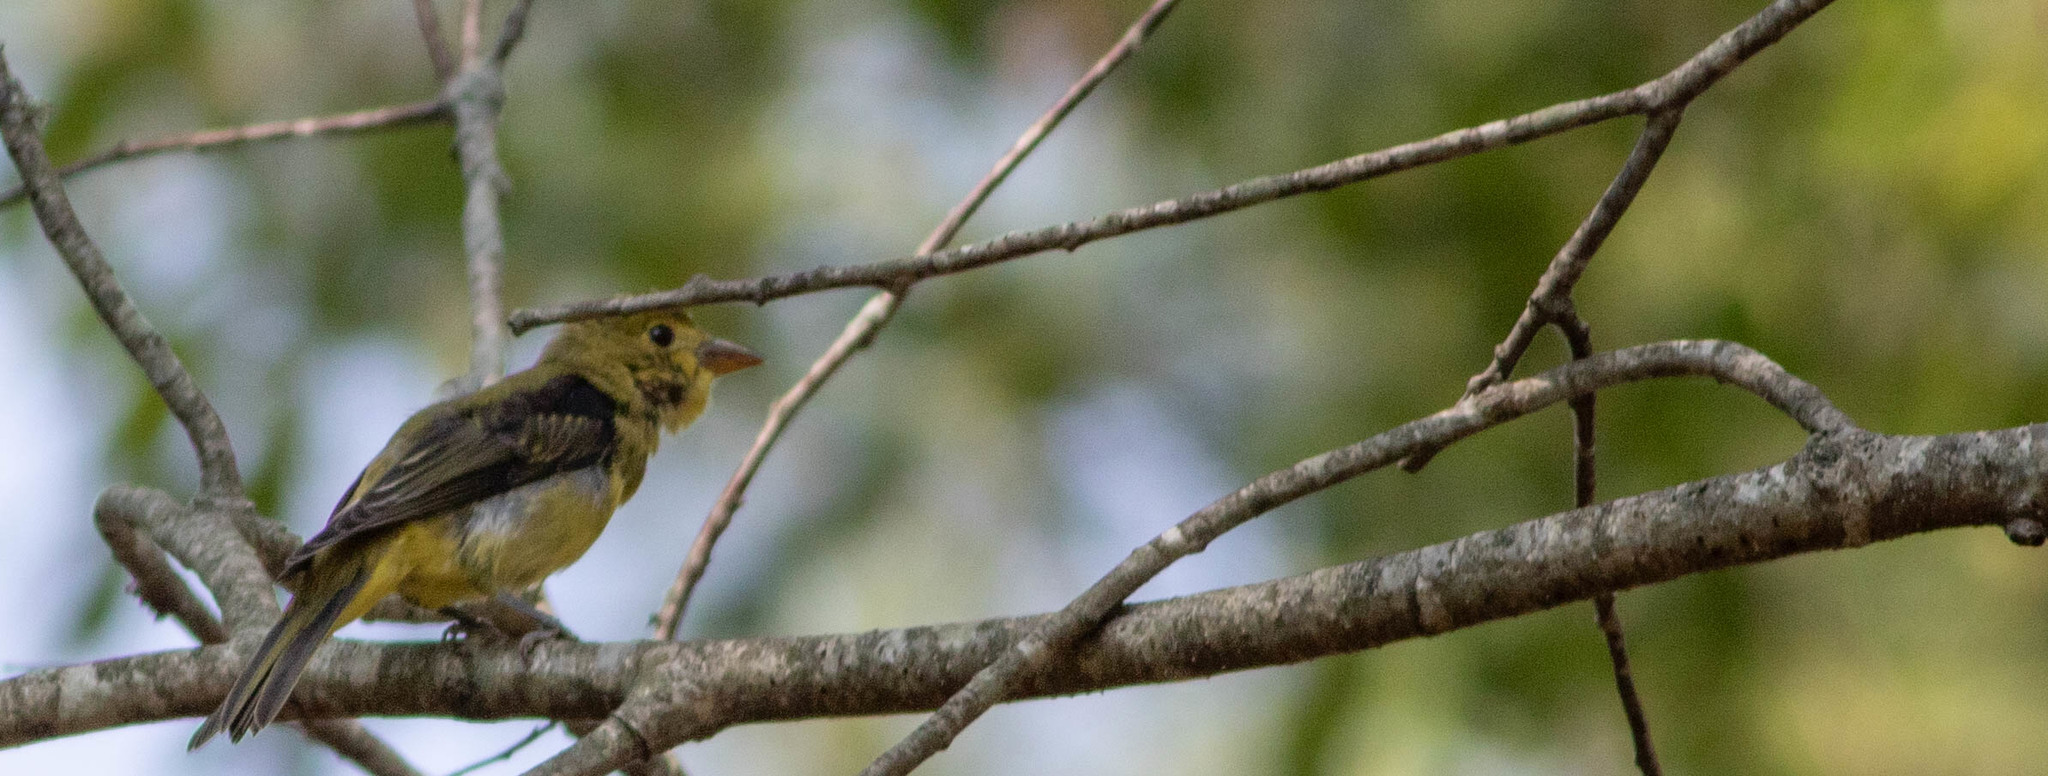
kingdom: Animalia
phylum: Chordata
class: Aves
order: Passeriformes
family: Cardinalidae
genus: Piranga
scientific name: Piranga olivacea
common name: Scarlet tanager
